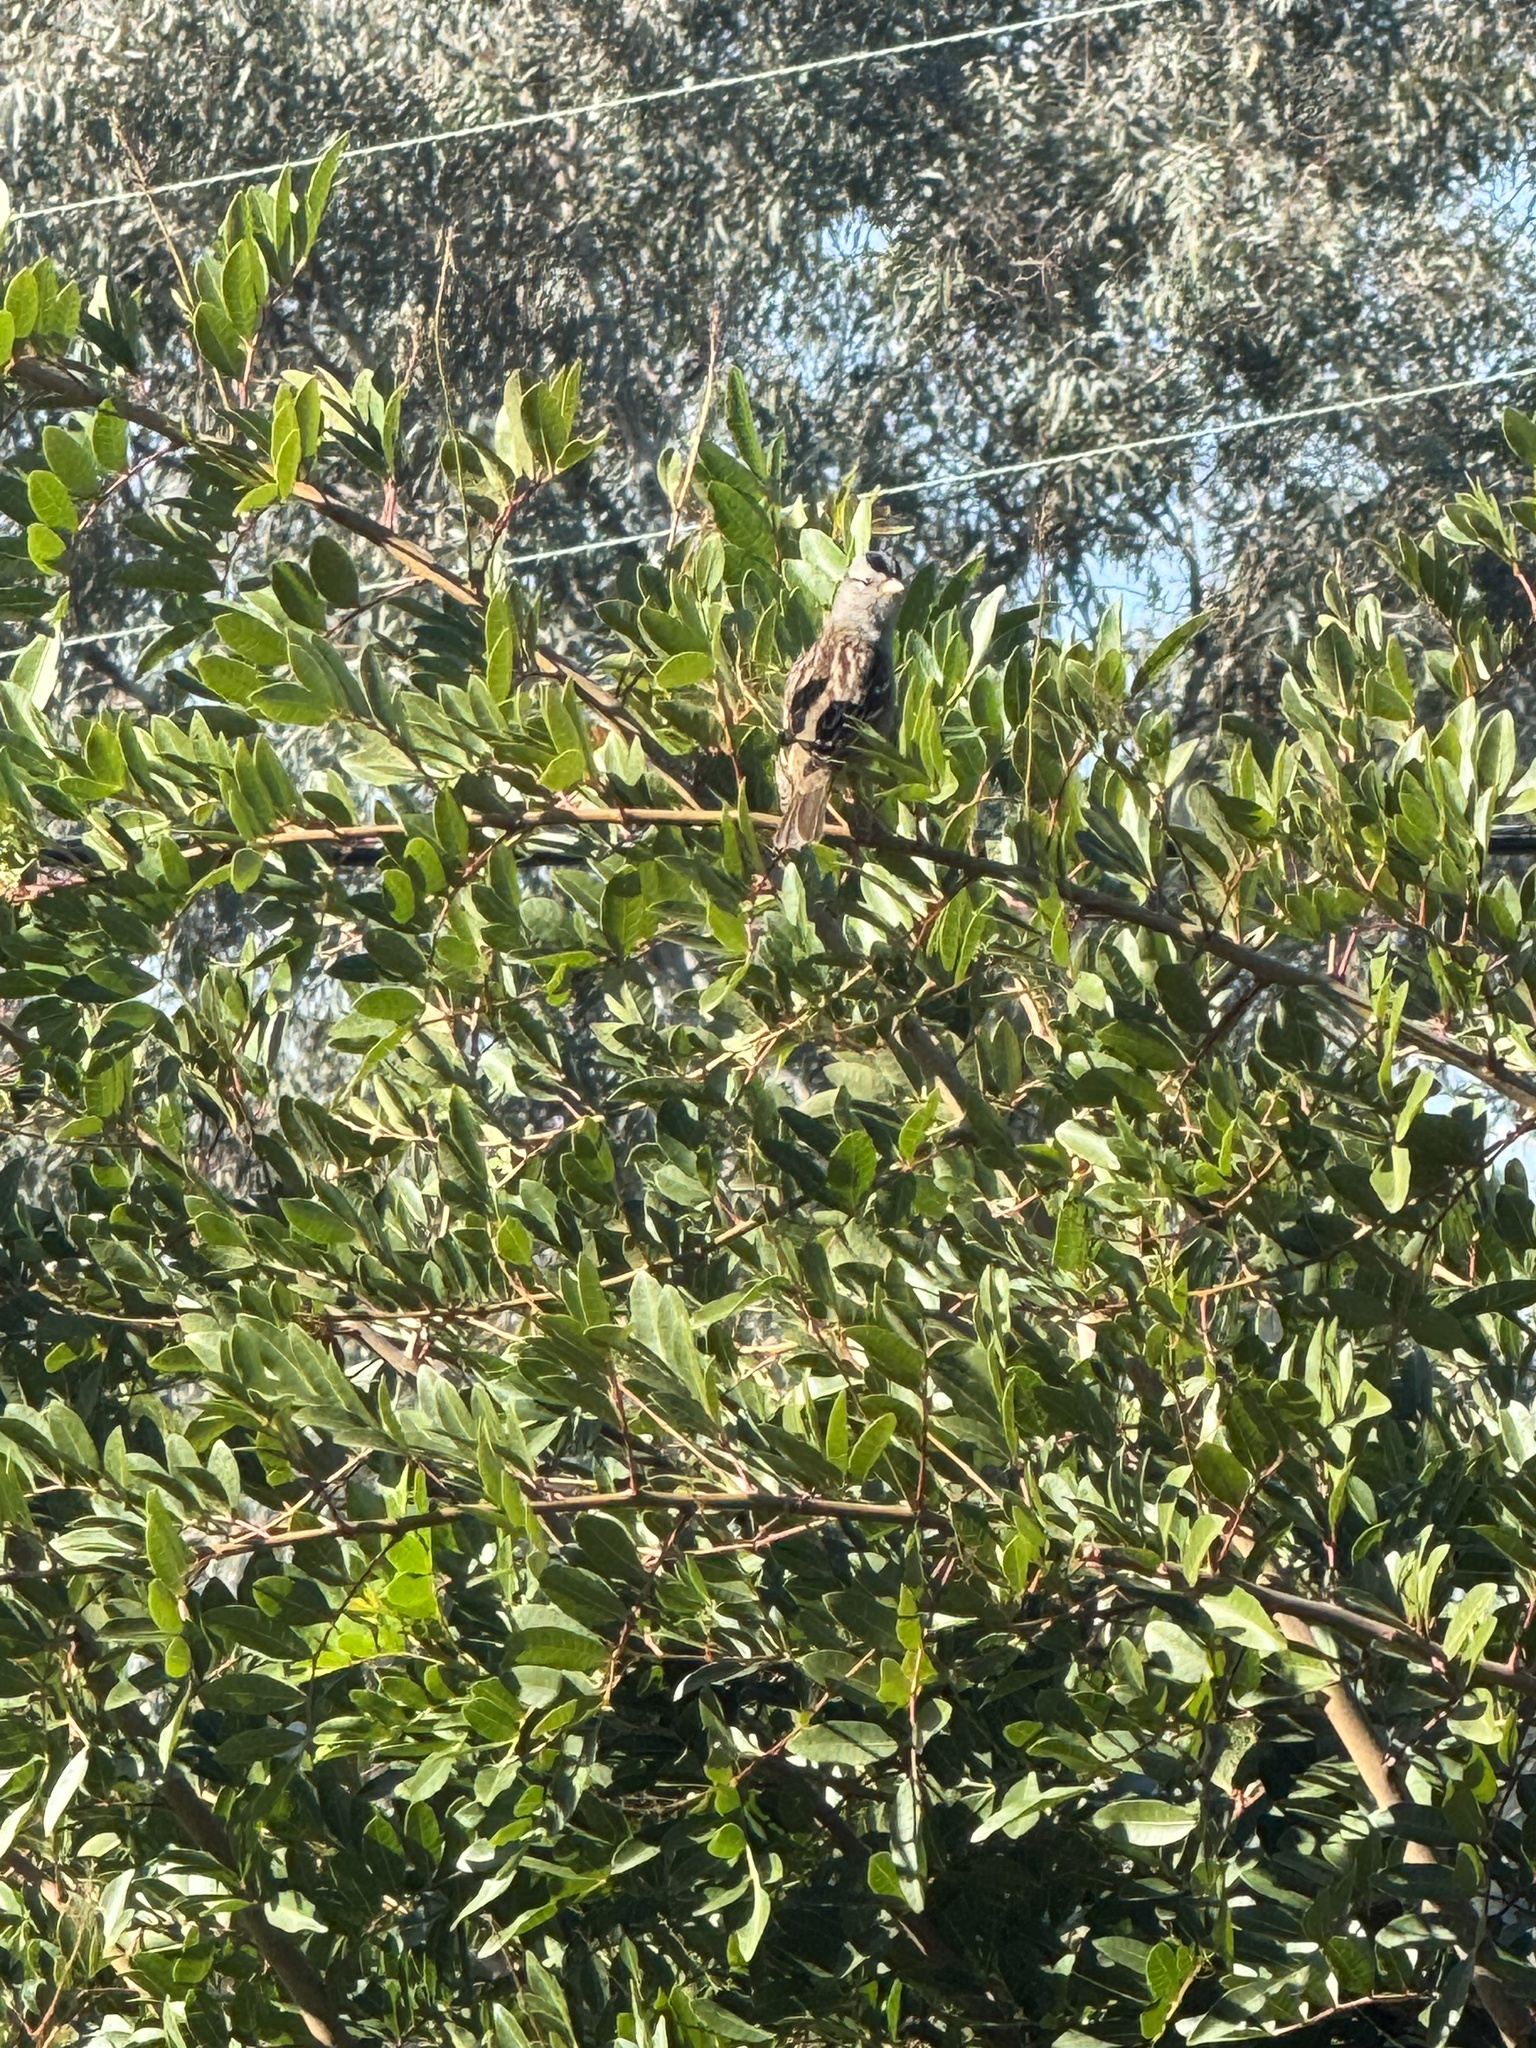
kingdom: Animalia
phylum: Chordata
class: Aves
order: Passeriformes
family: Passerellidae
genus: Zonotrichia
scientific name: Zonotrichia leucophrys
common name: White-crowned sparrow
